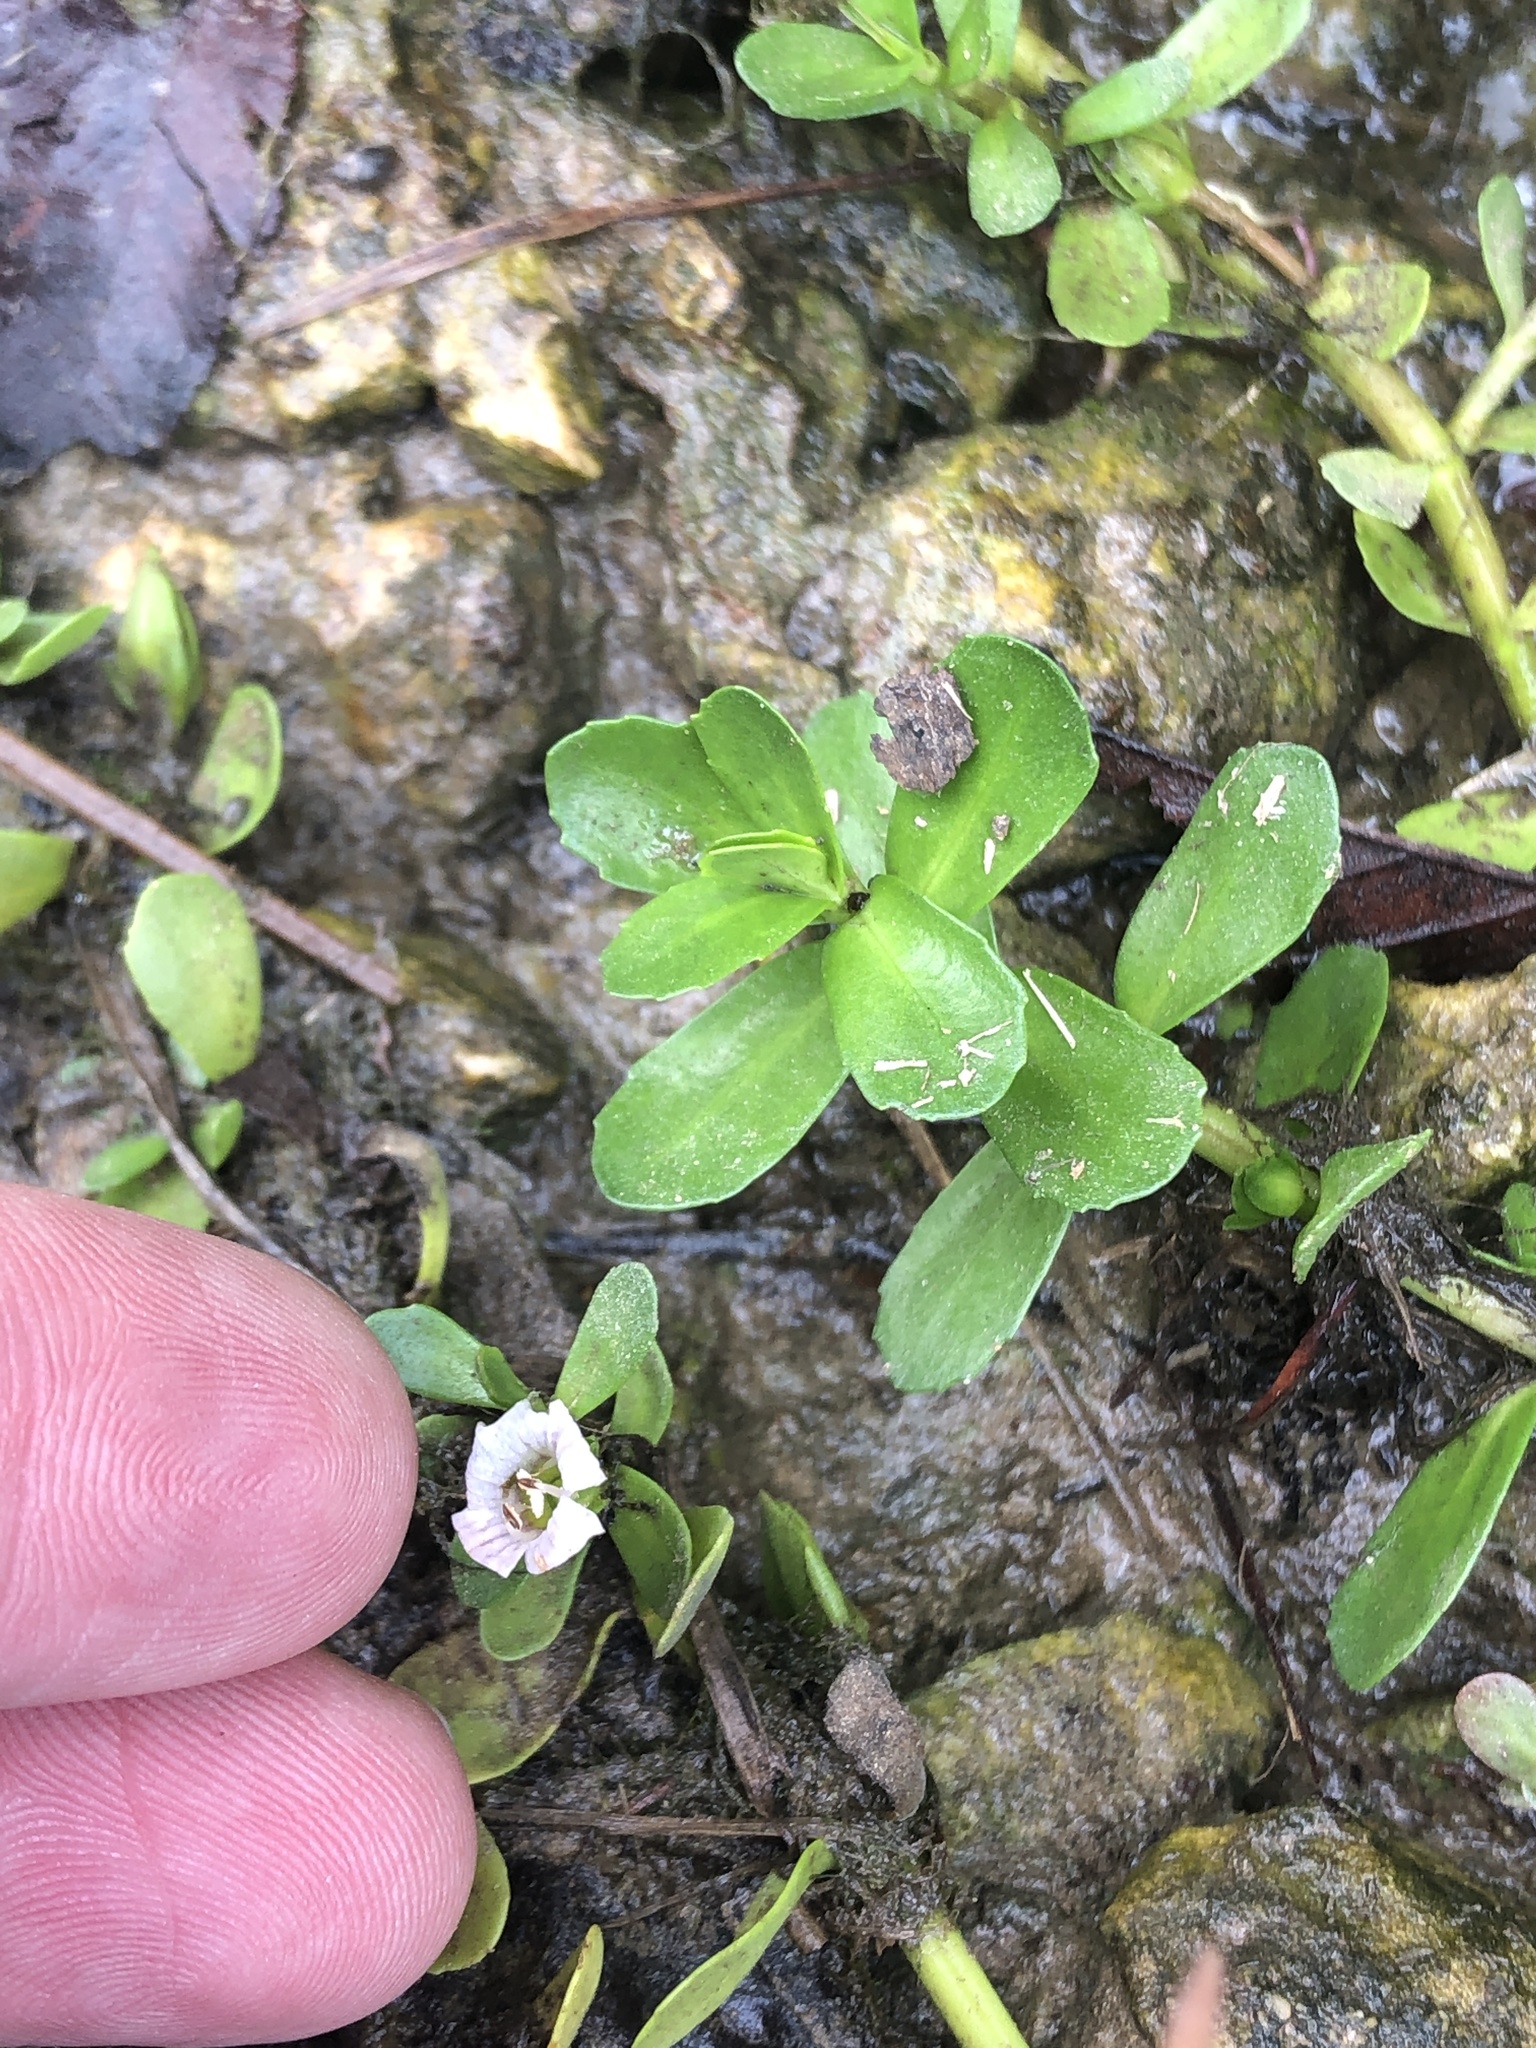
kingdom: Plantae
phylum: Tracheophyta
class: Magnoliopsida
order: Lamiales
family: Plantaginaceae
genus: Bacopa
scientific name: Bacopa monnieri
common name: Indian-pennywort
